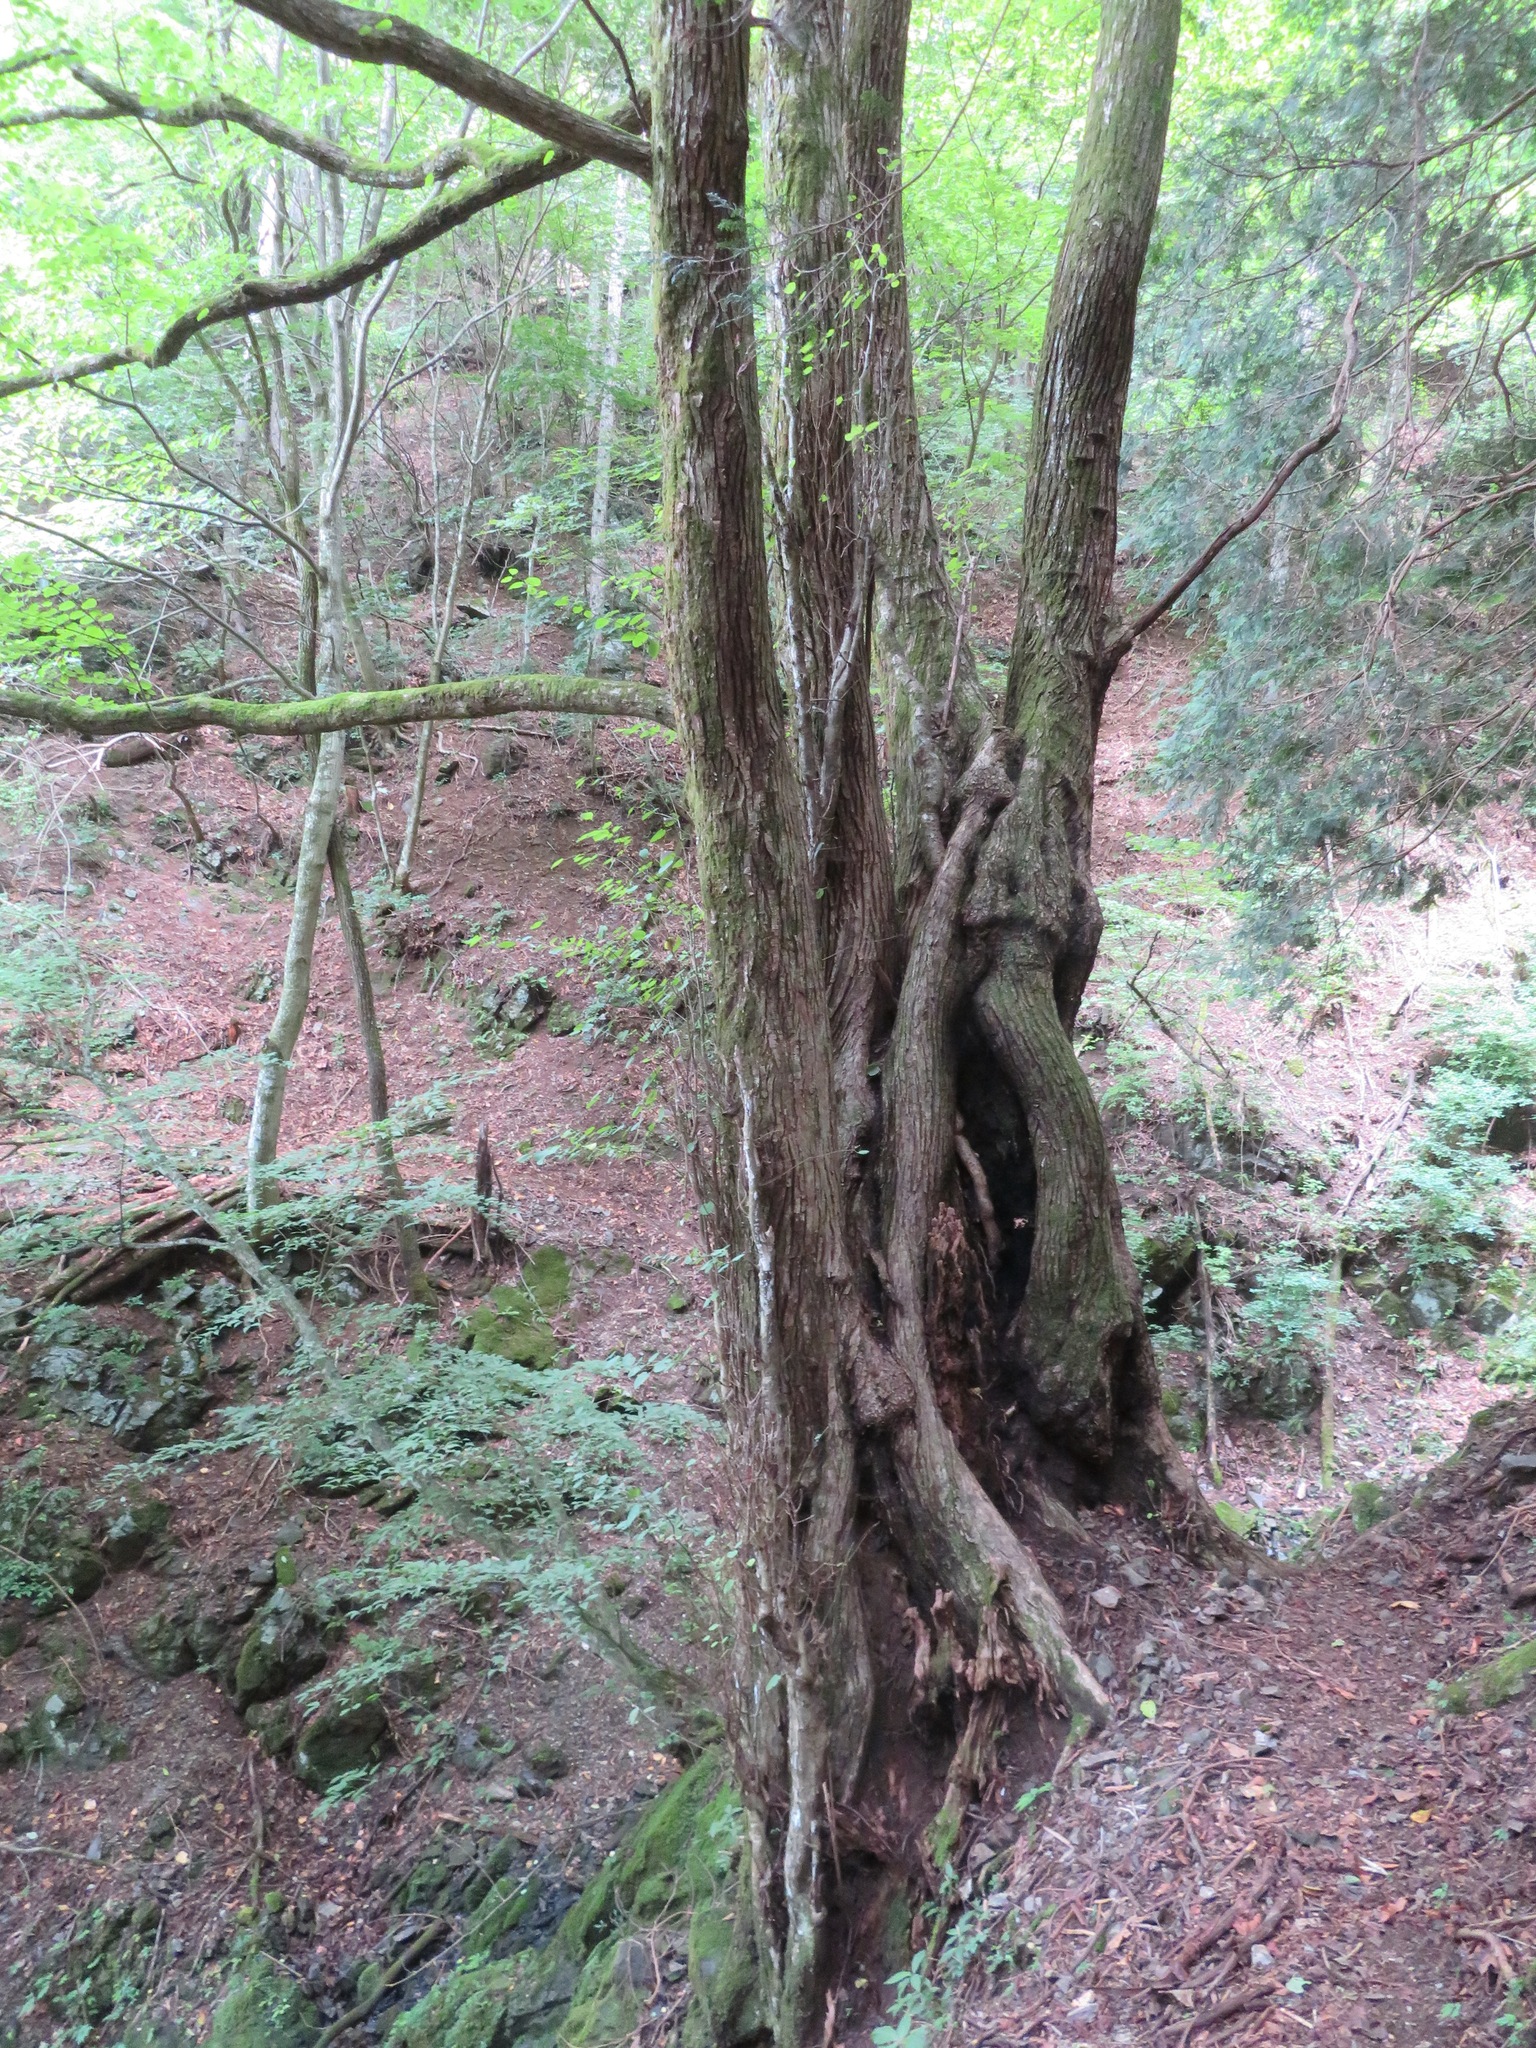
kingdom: Plantae
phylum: Tracheophyta
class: Magnoliopsida
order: Saxifragales
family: Cercidiphyllaceae
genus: Cercidiphyllum
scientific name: Cercidiphyllum japonicum
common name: Katsura tree
